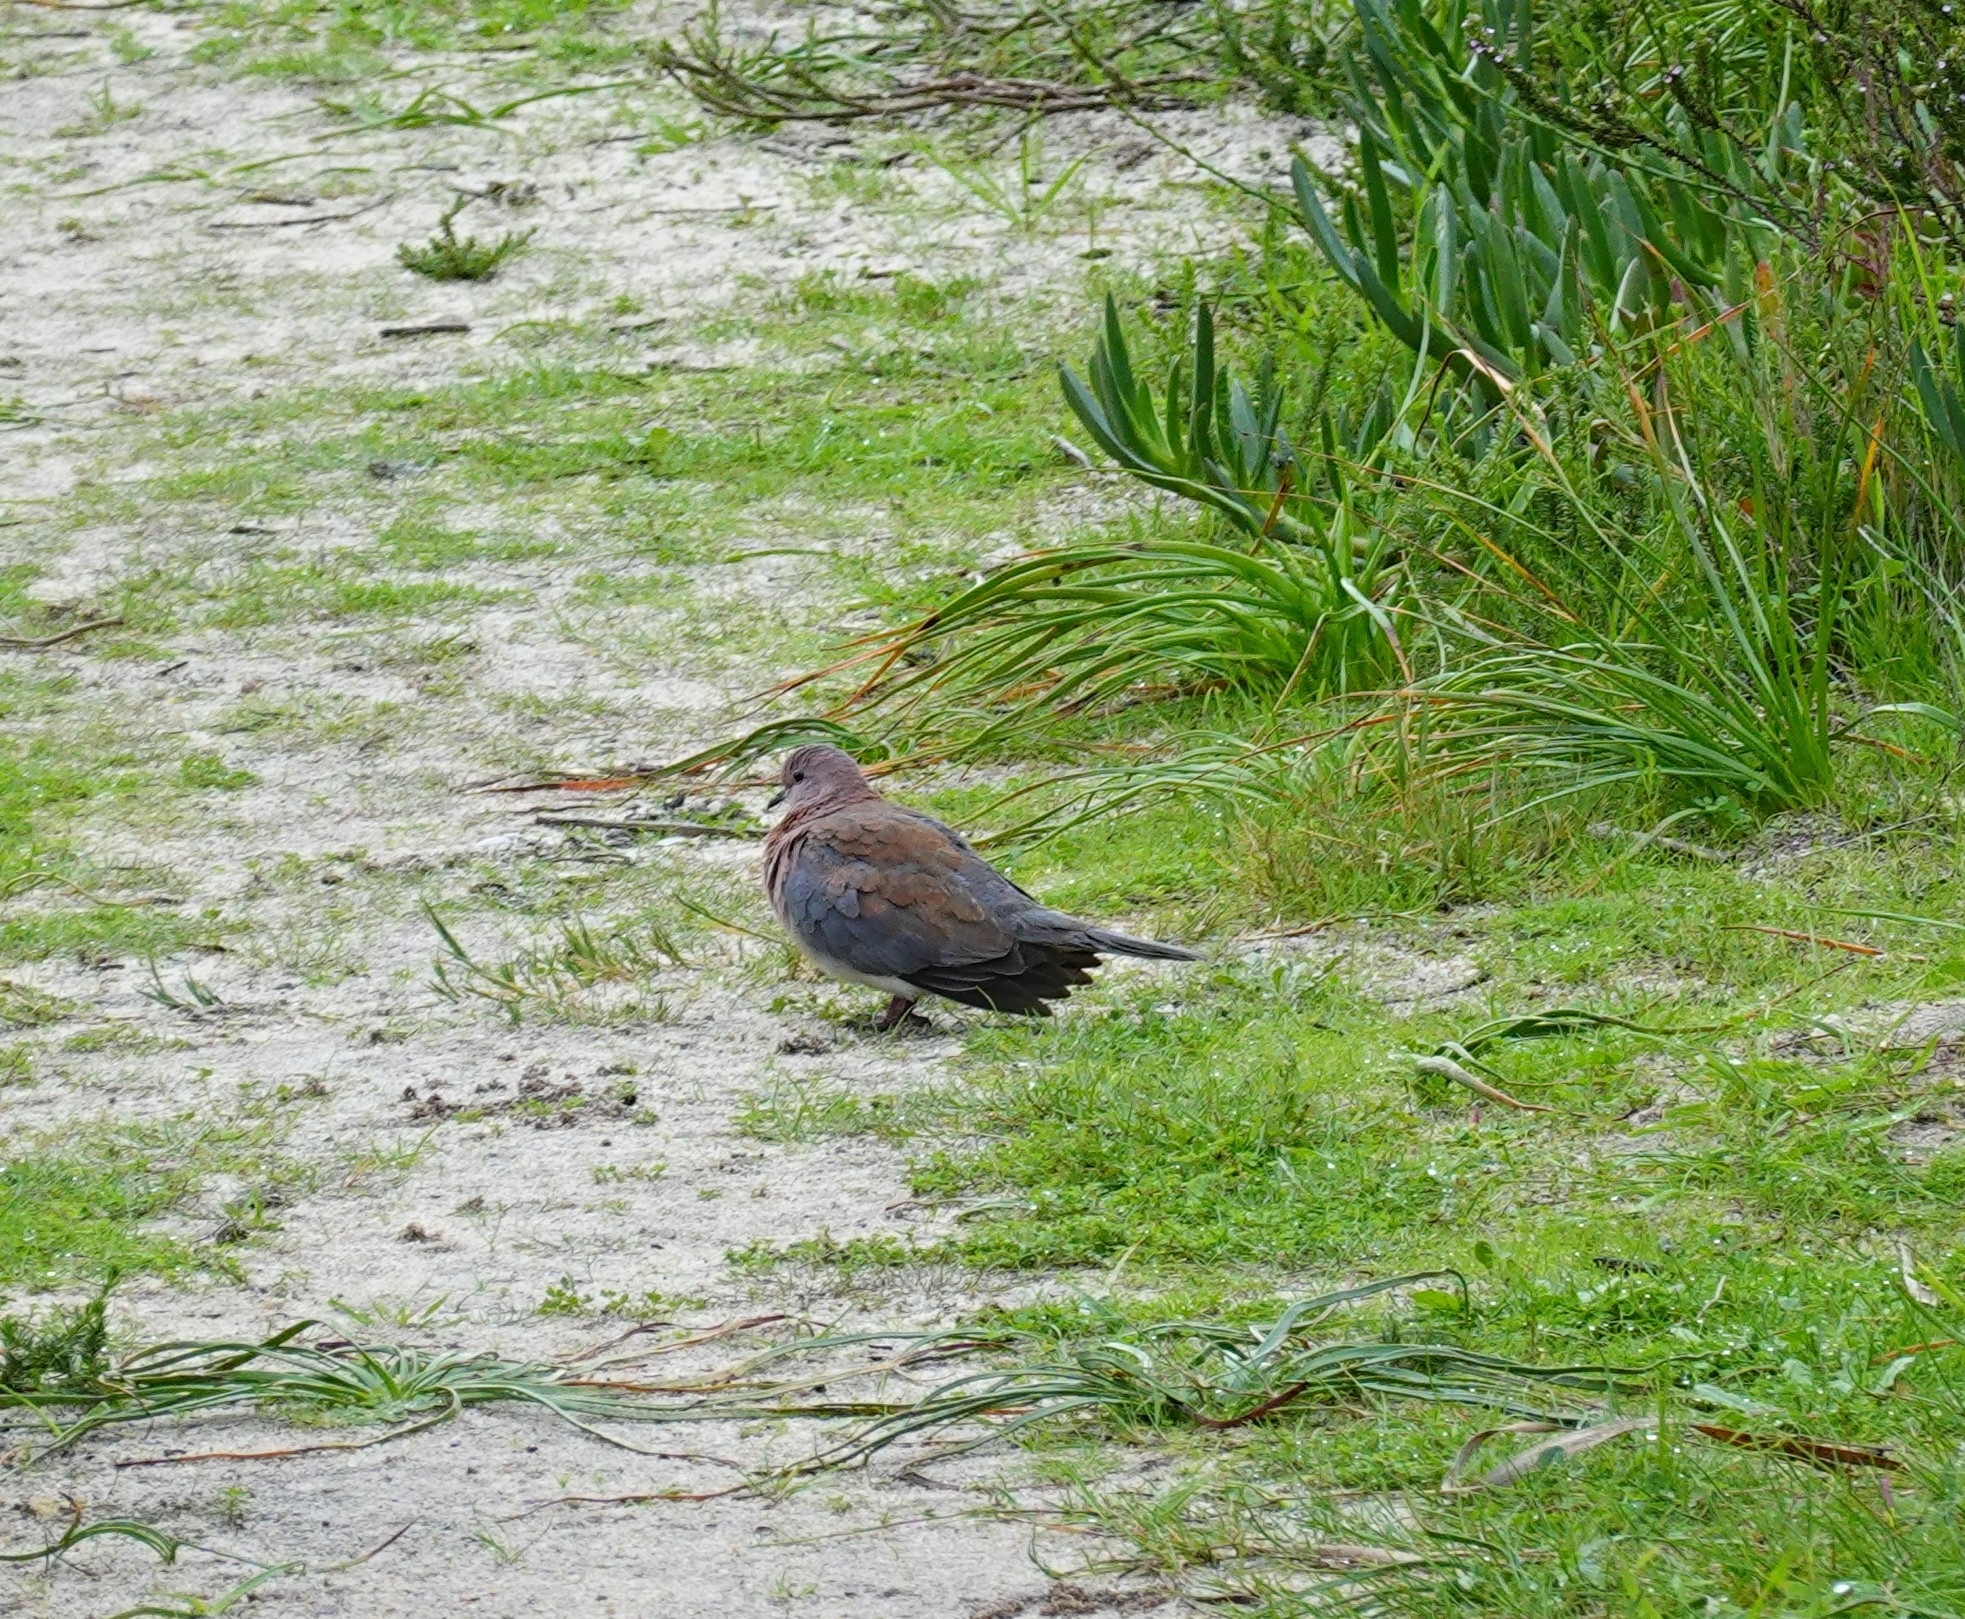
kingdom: Animalia
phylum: Chordata
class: Aves
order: Columbiformes
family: Columbidae
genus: Spilopelia
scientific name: Spilopelia senegalensis
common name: Laughing dove
